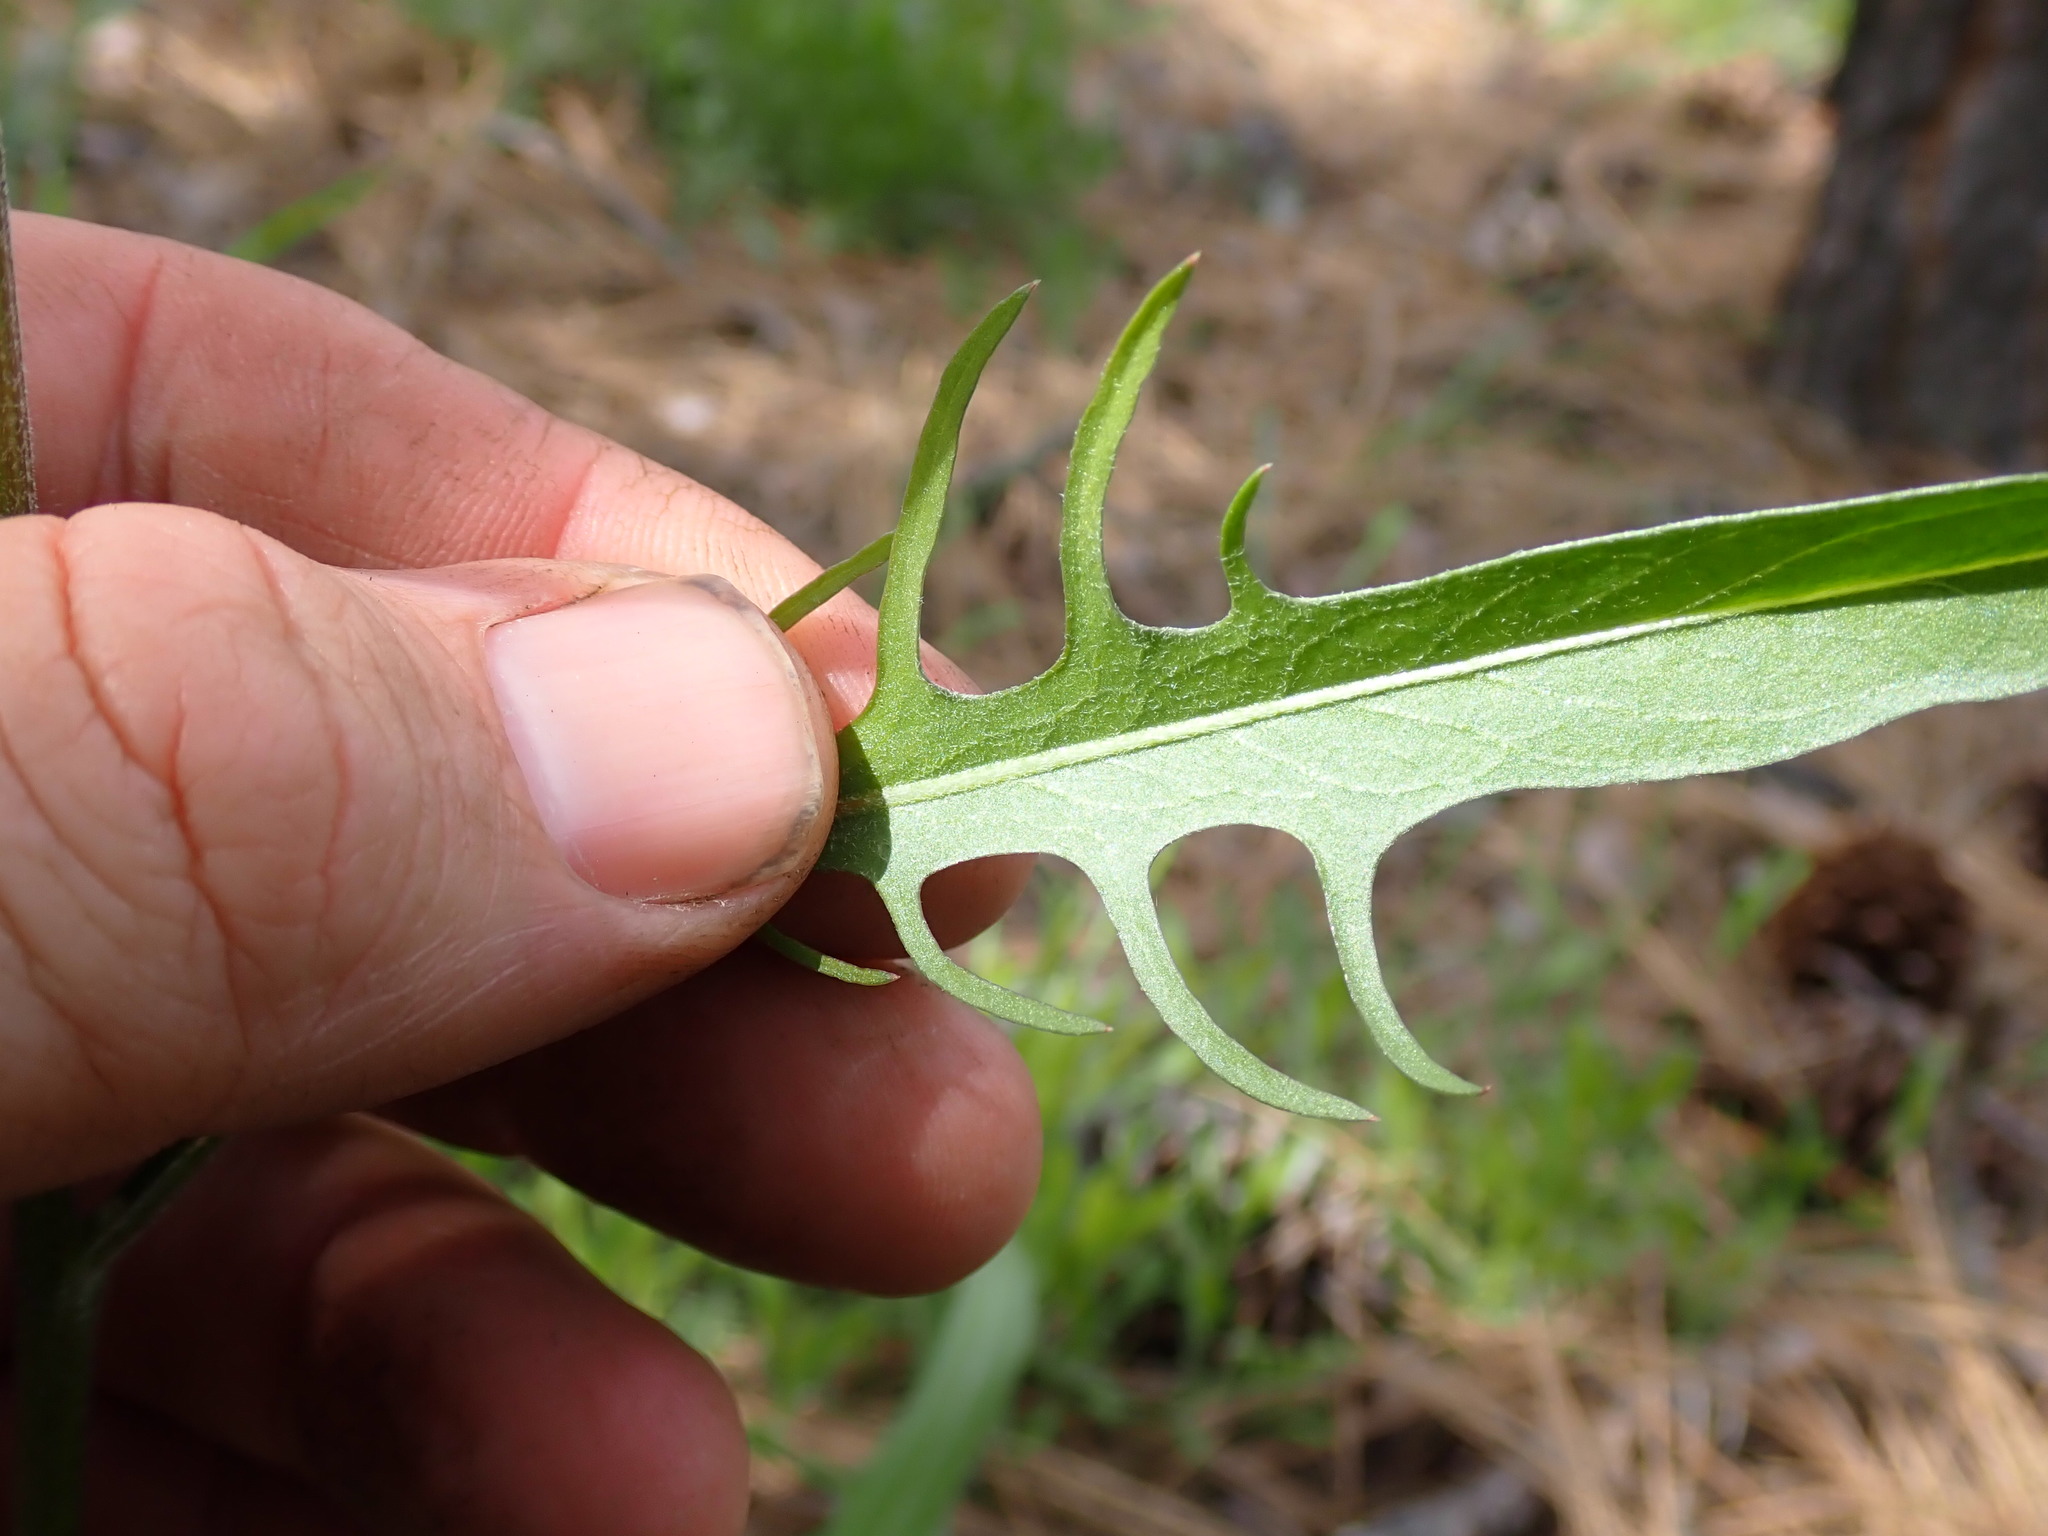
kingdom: Plantae
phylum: Tracheophyta
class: Magnoliopsida
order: Asterales
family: Asteraceae
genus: Crepis
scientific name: Crepis atribarba
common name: Dark hawk's-beard
